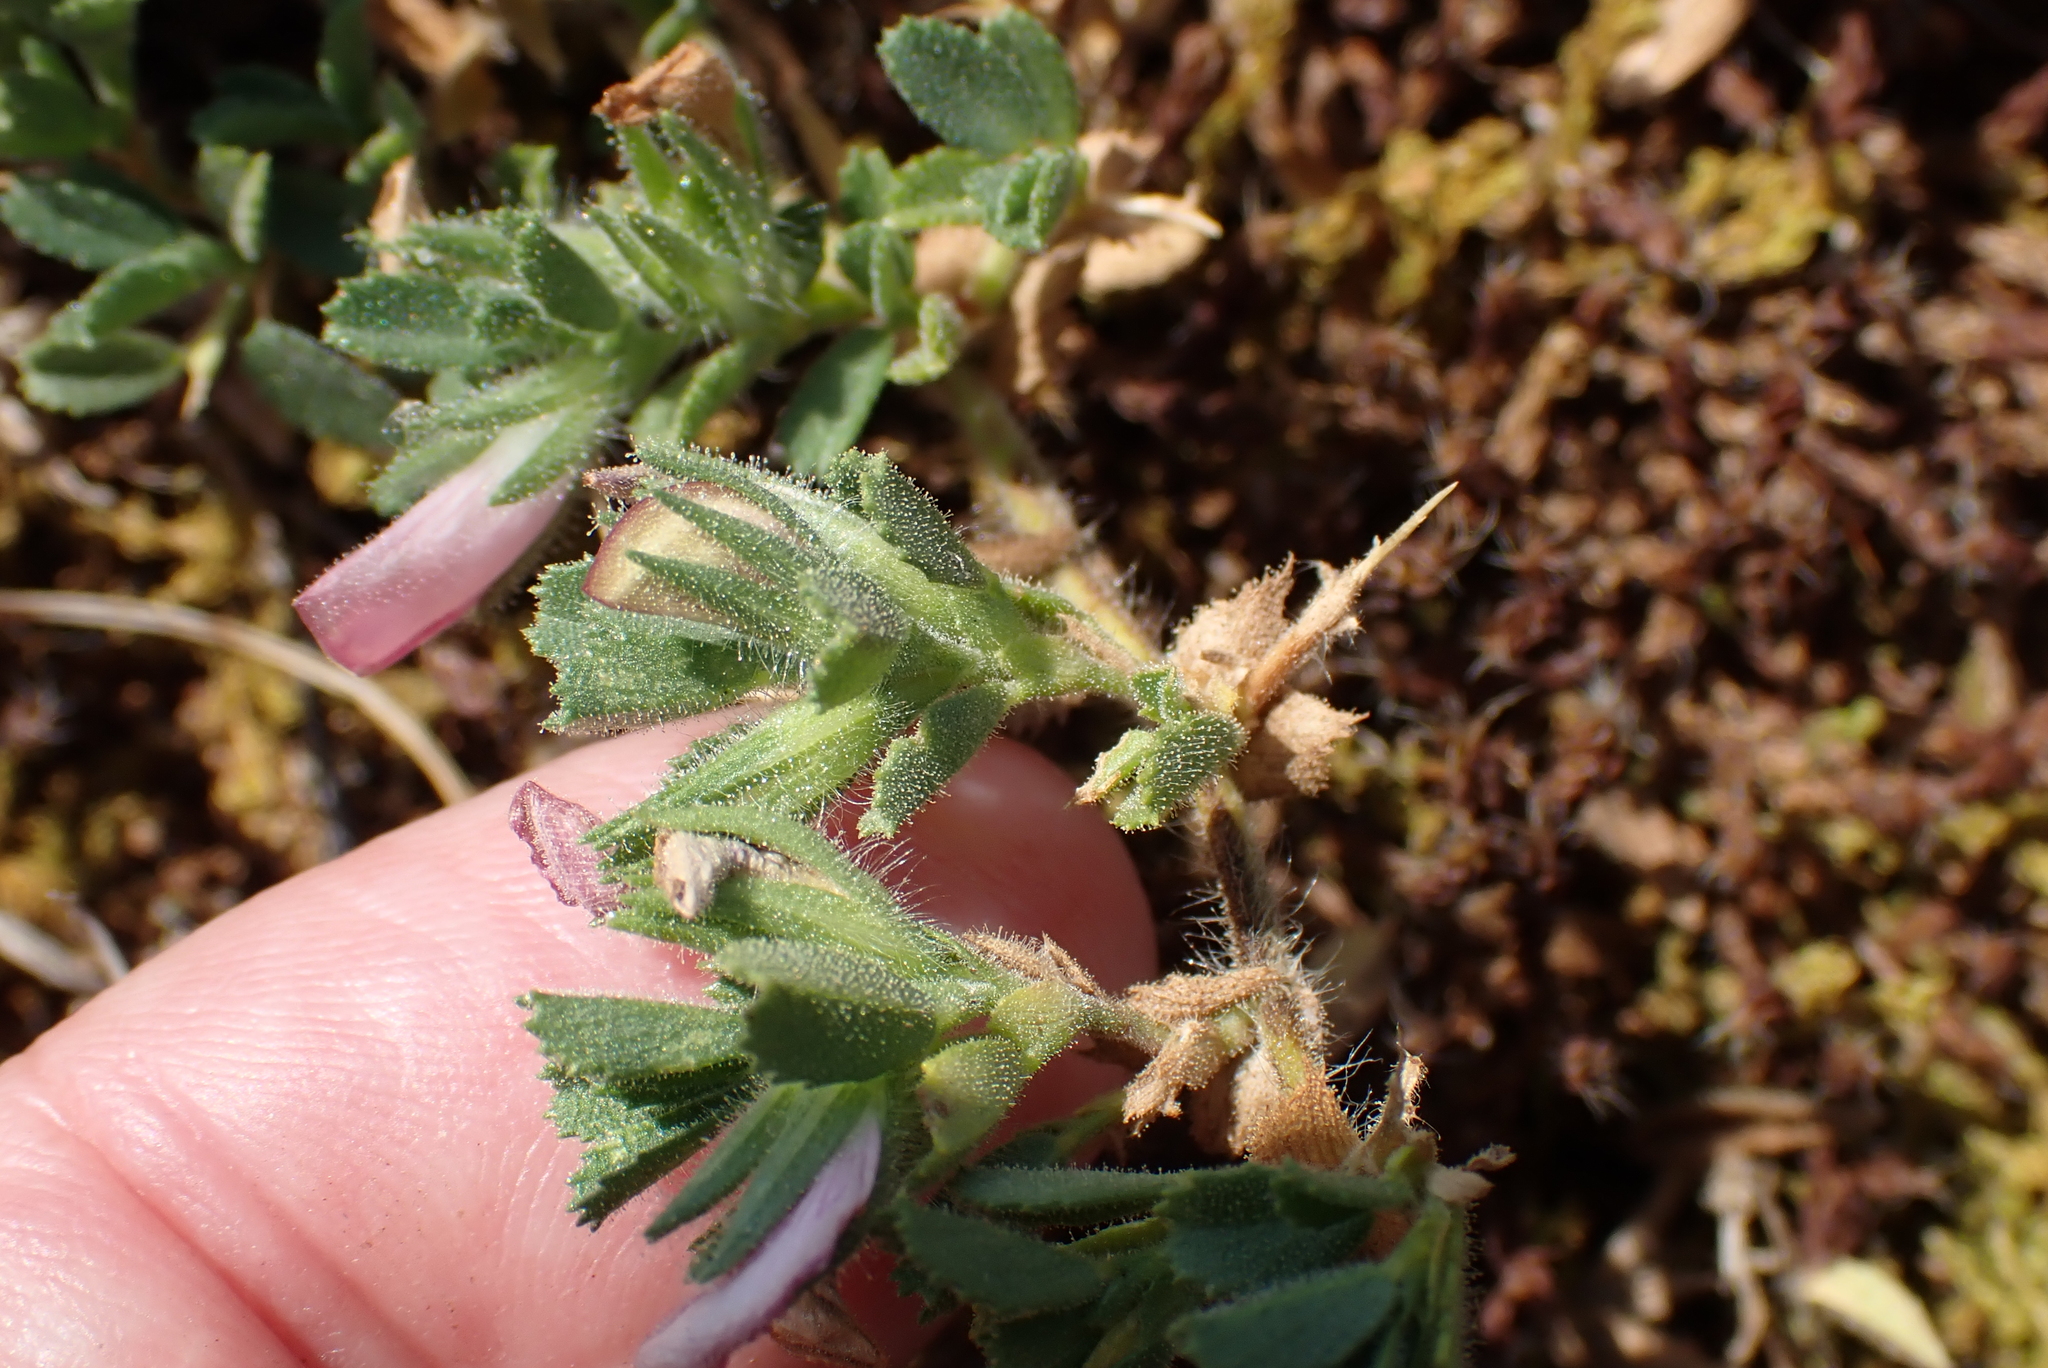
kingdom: Plantae
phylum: Tracheophyta
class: Magnoliopsida
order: Fabales
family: Fabaceae
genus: Ononis
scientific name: Ononis spinosa
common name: Spiny restharrow
